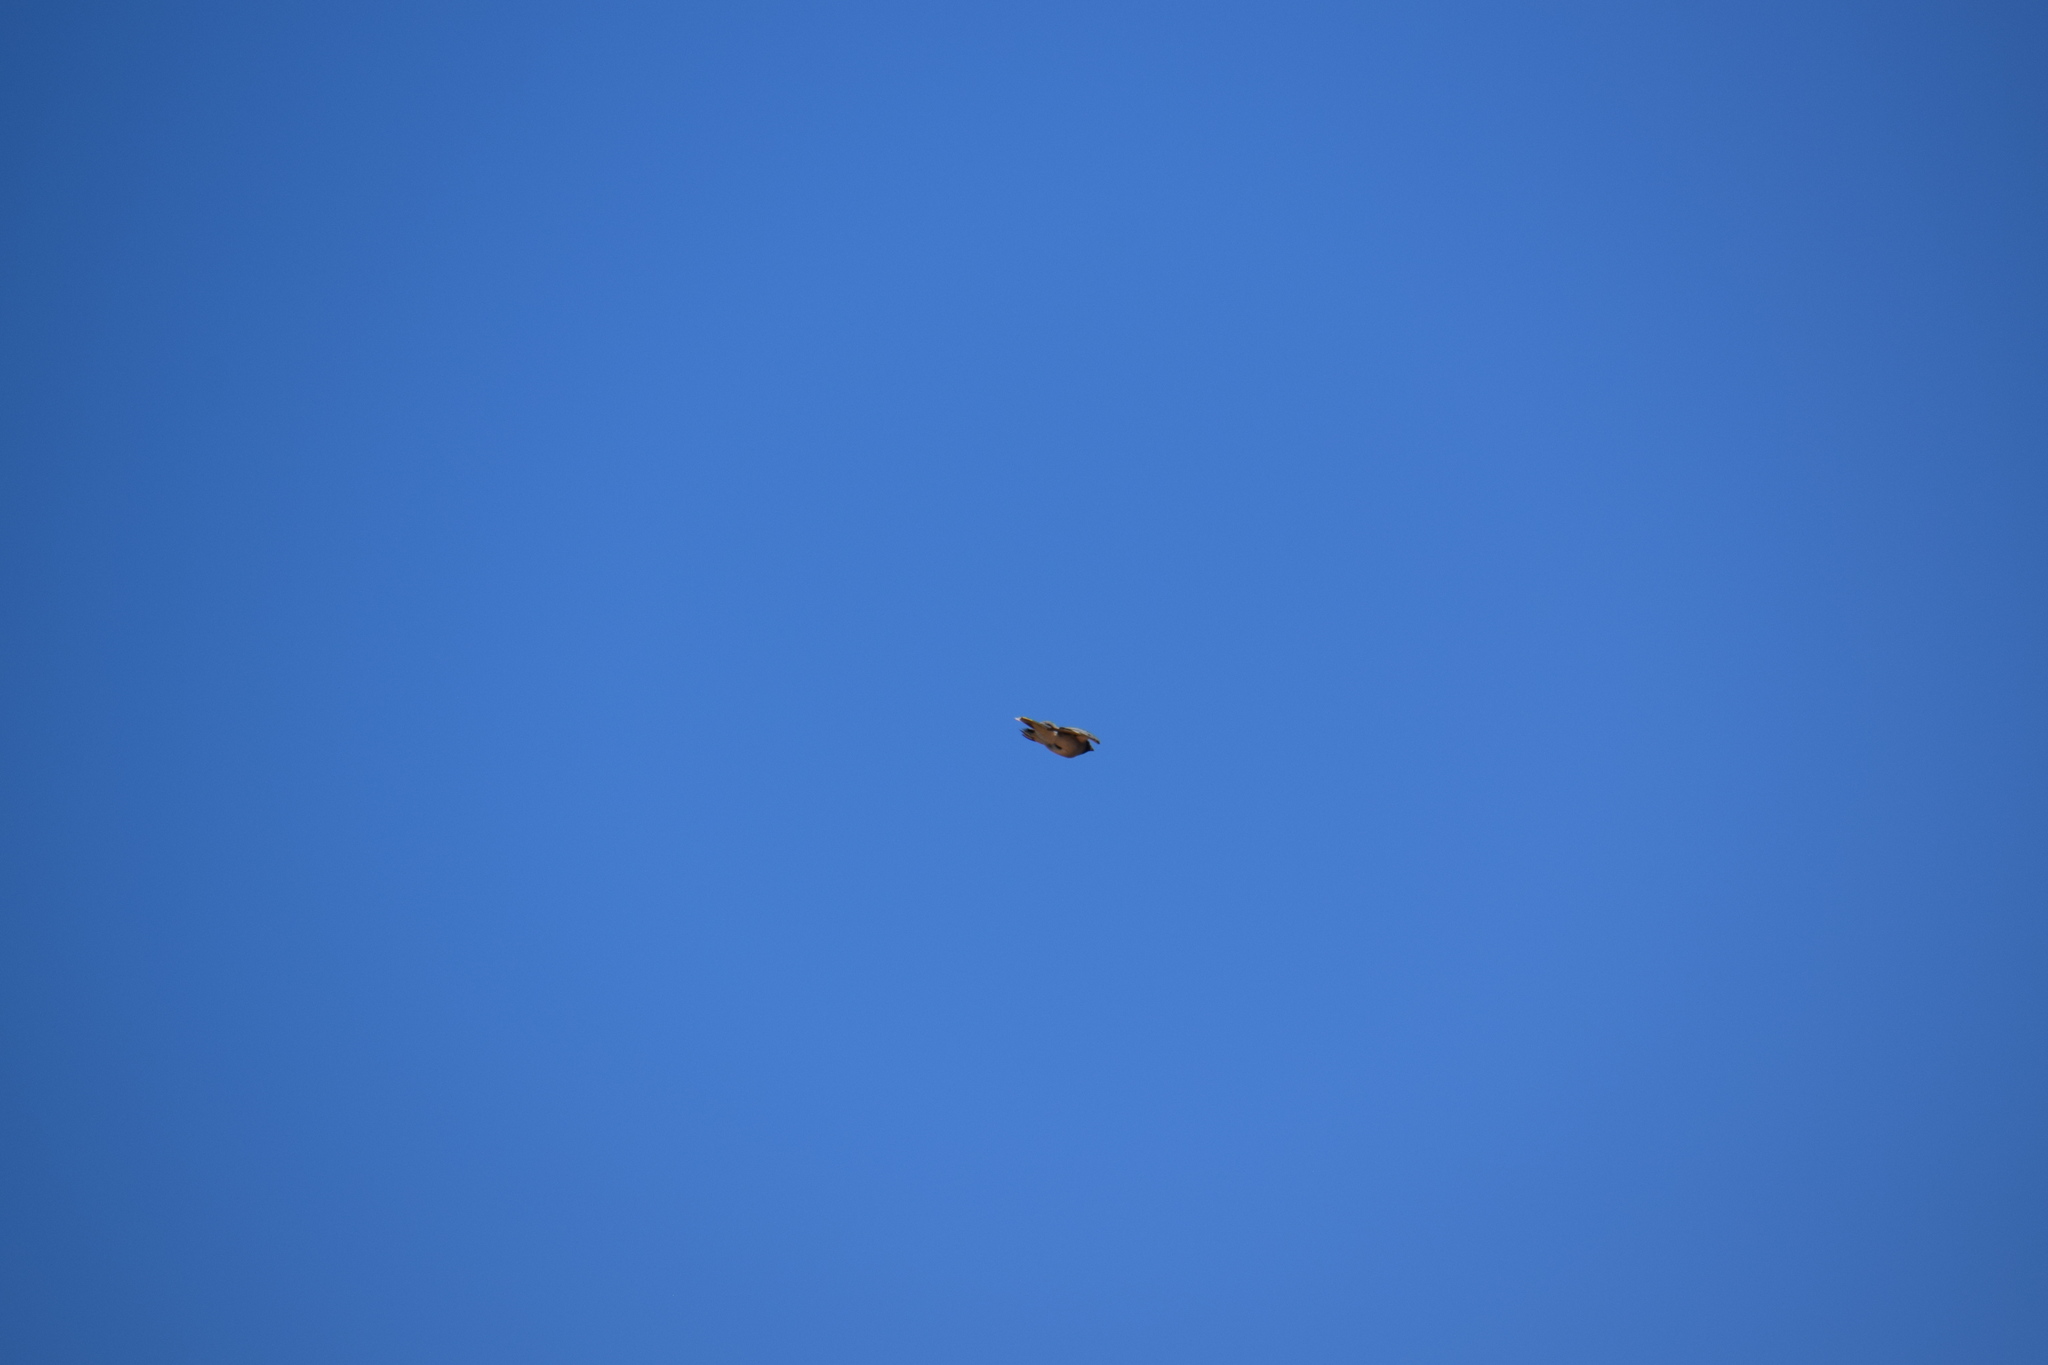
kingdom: Animalia
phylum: Chordata
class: Aves
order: Passeriformes
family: Campephagidae
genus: Coracina
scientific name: Coracina novaehollandiae
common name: Black-faced cuckooshrike
